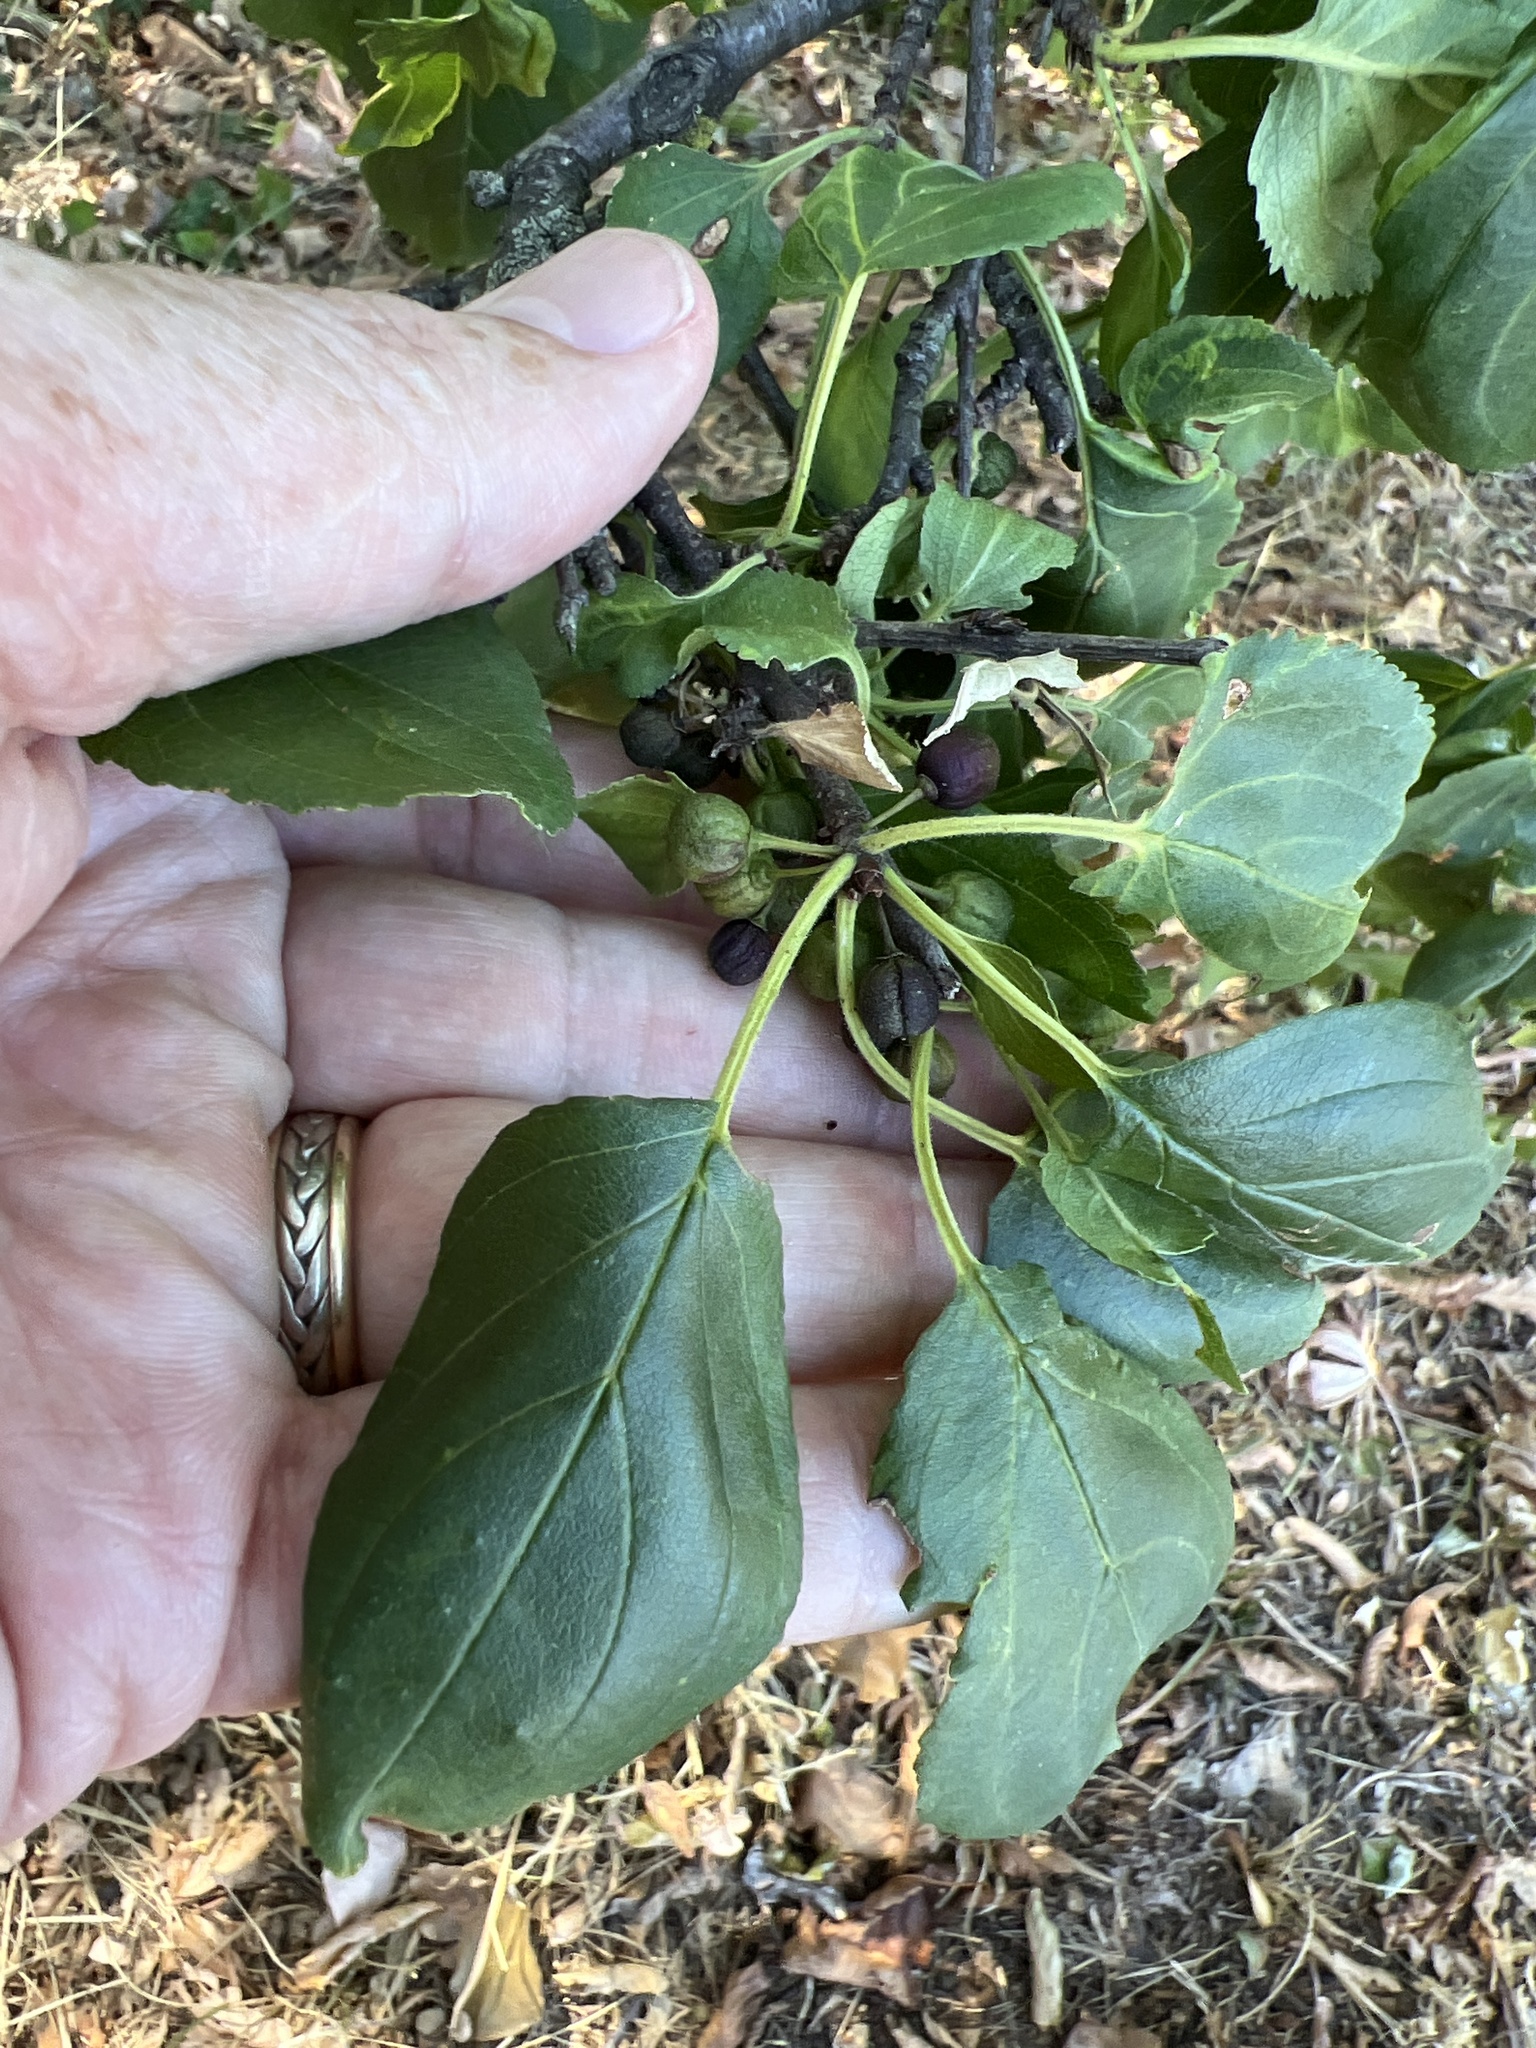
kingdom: Plantae
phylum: Tracheophyta
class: Magnoliopsida
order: Rosales
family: Rhamnaceae
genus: Rhamnus
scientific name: Rhamnus cathartica
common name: Common buckthorn
